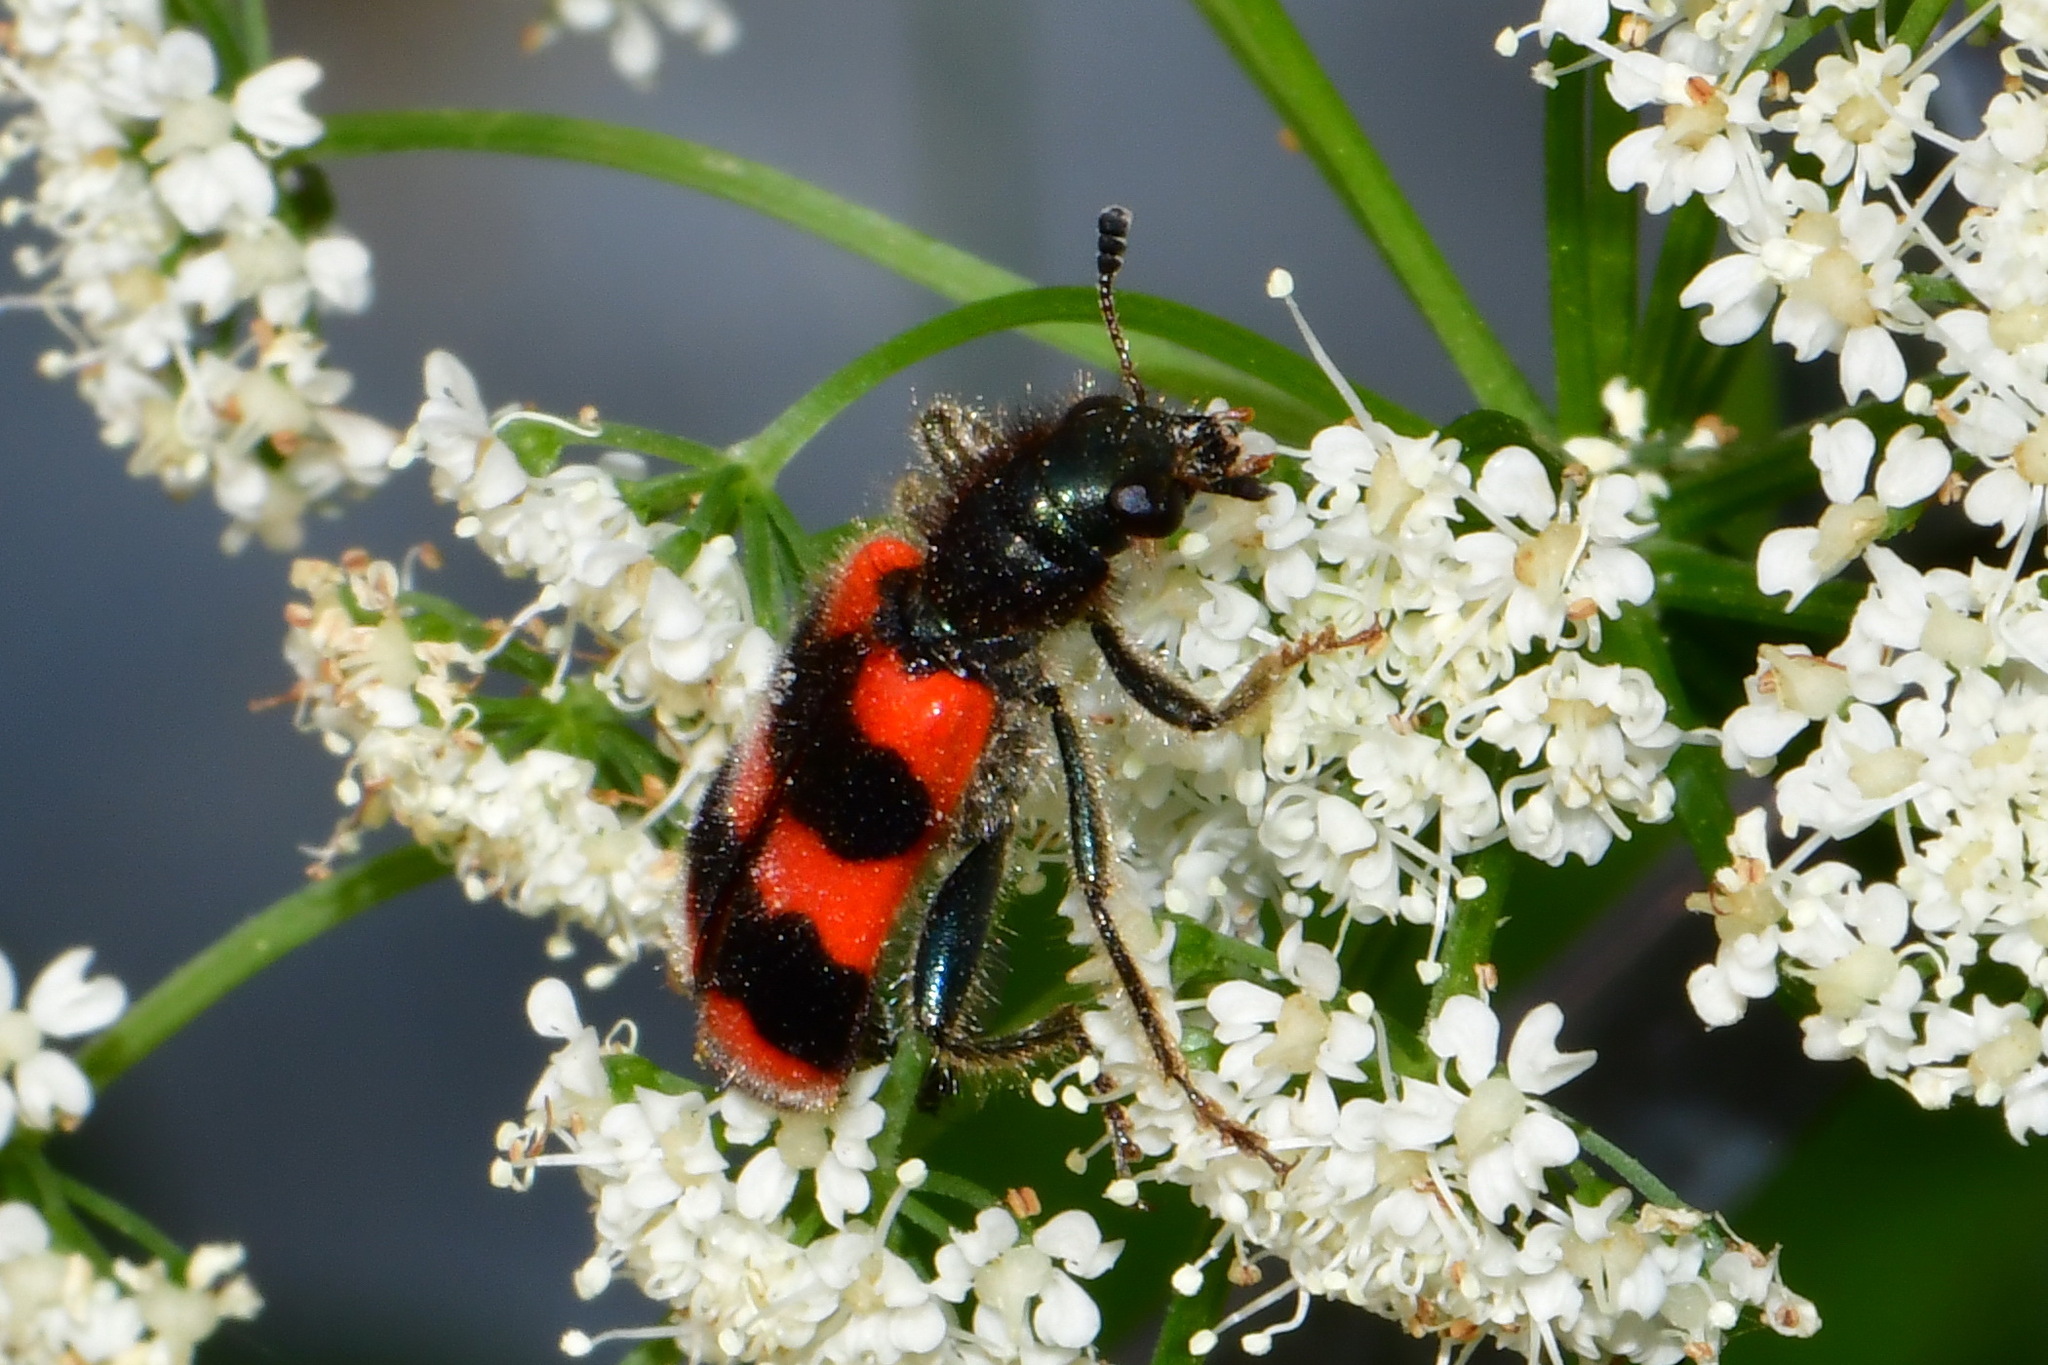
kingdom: Animalia
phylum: Arthropoda
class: Insecta
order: Coleoptera
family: Cleridae
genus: Trichodes
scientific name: Trichodes apiarius
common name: Bee-eating beetle
